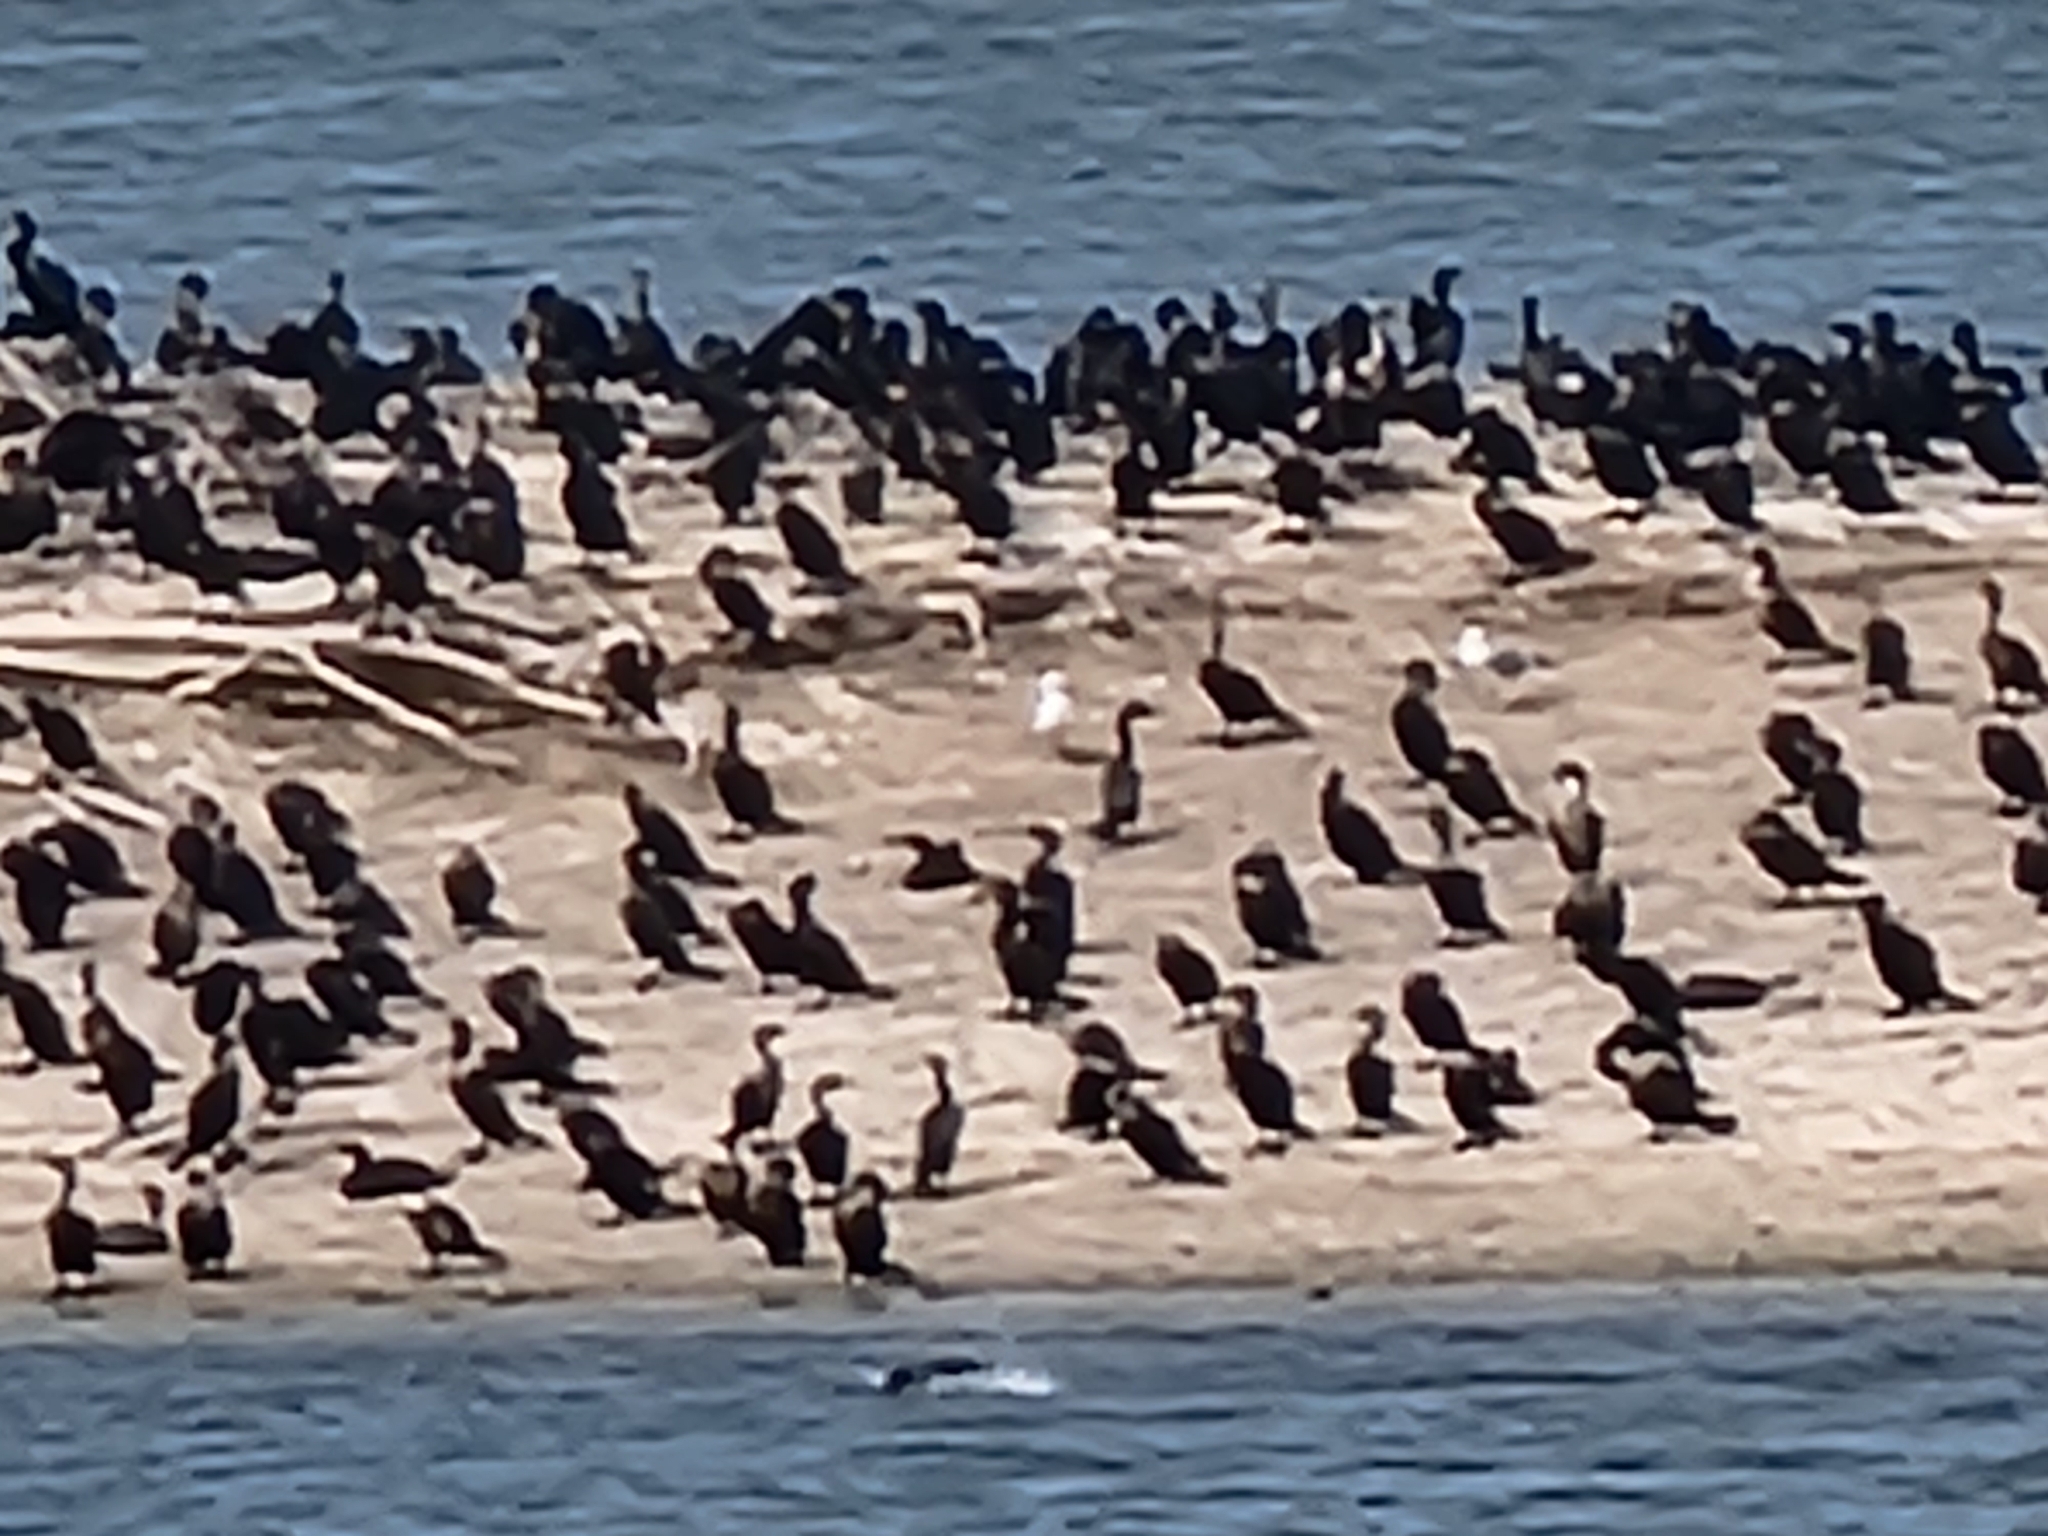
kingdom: Animalia
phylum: Chordata
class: Aves
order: Suliformes
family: Phalacrocoracidae
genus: Phalacrocorax
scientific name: Phalacrocorax auritus
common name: Double-crested cormorant
